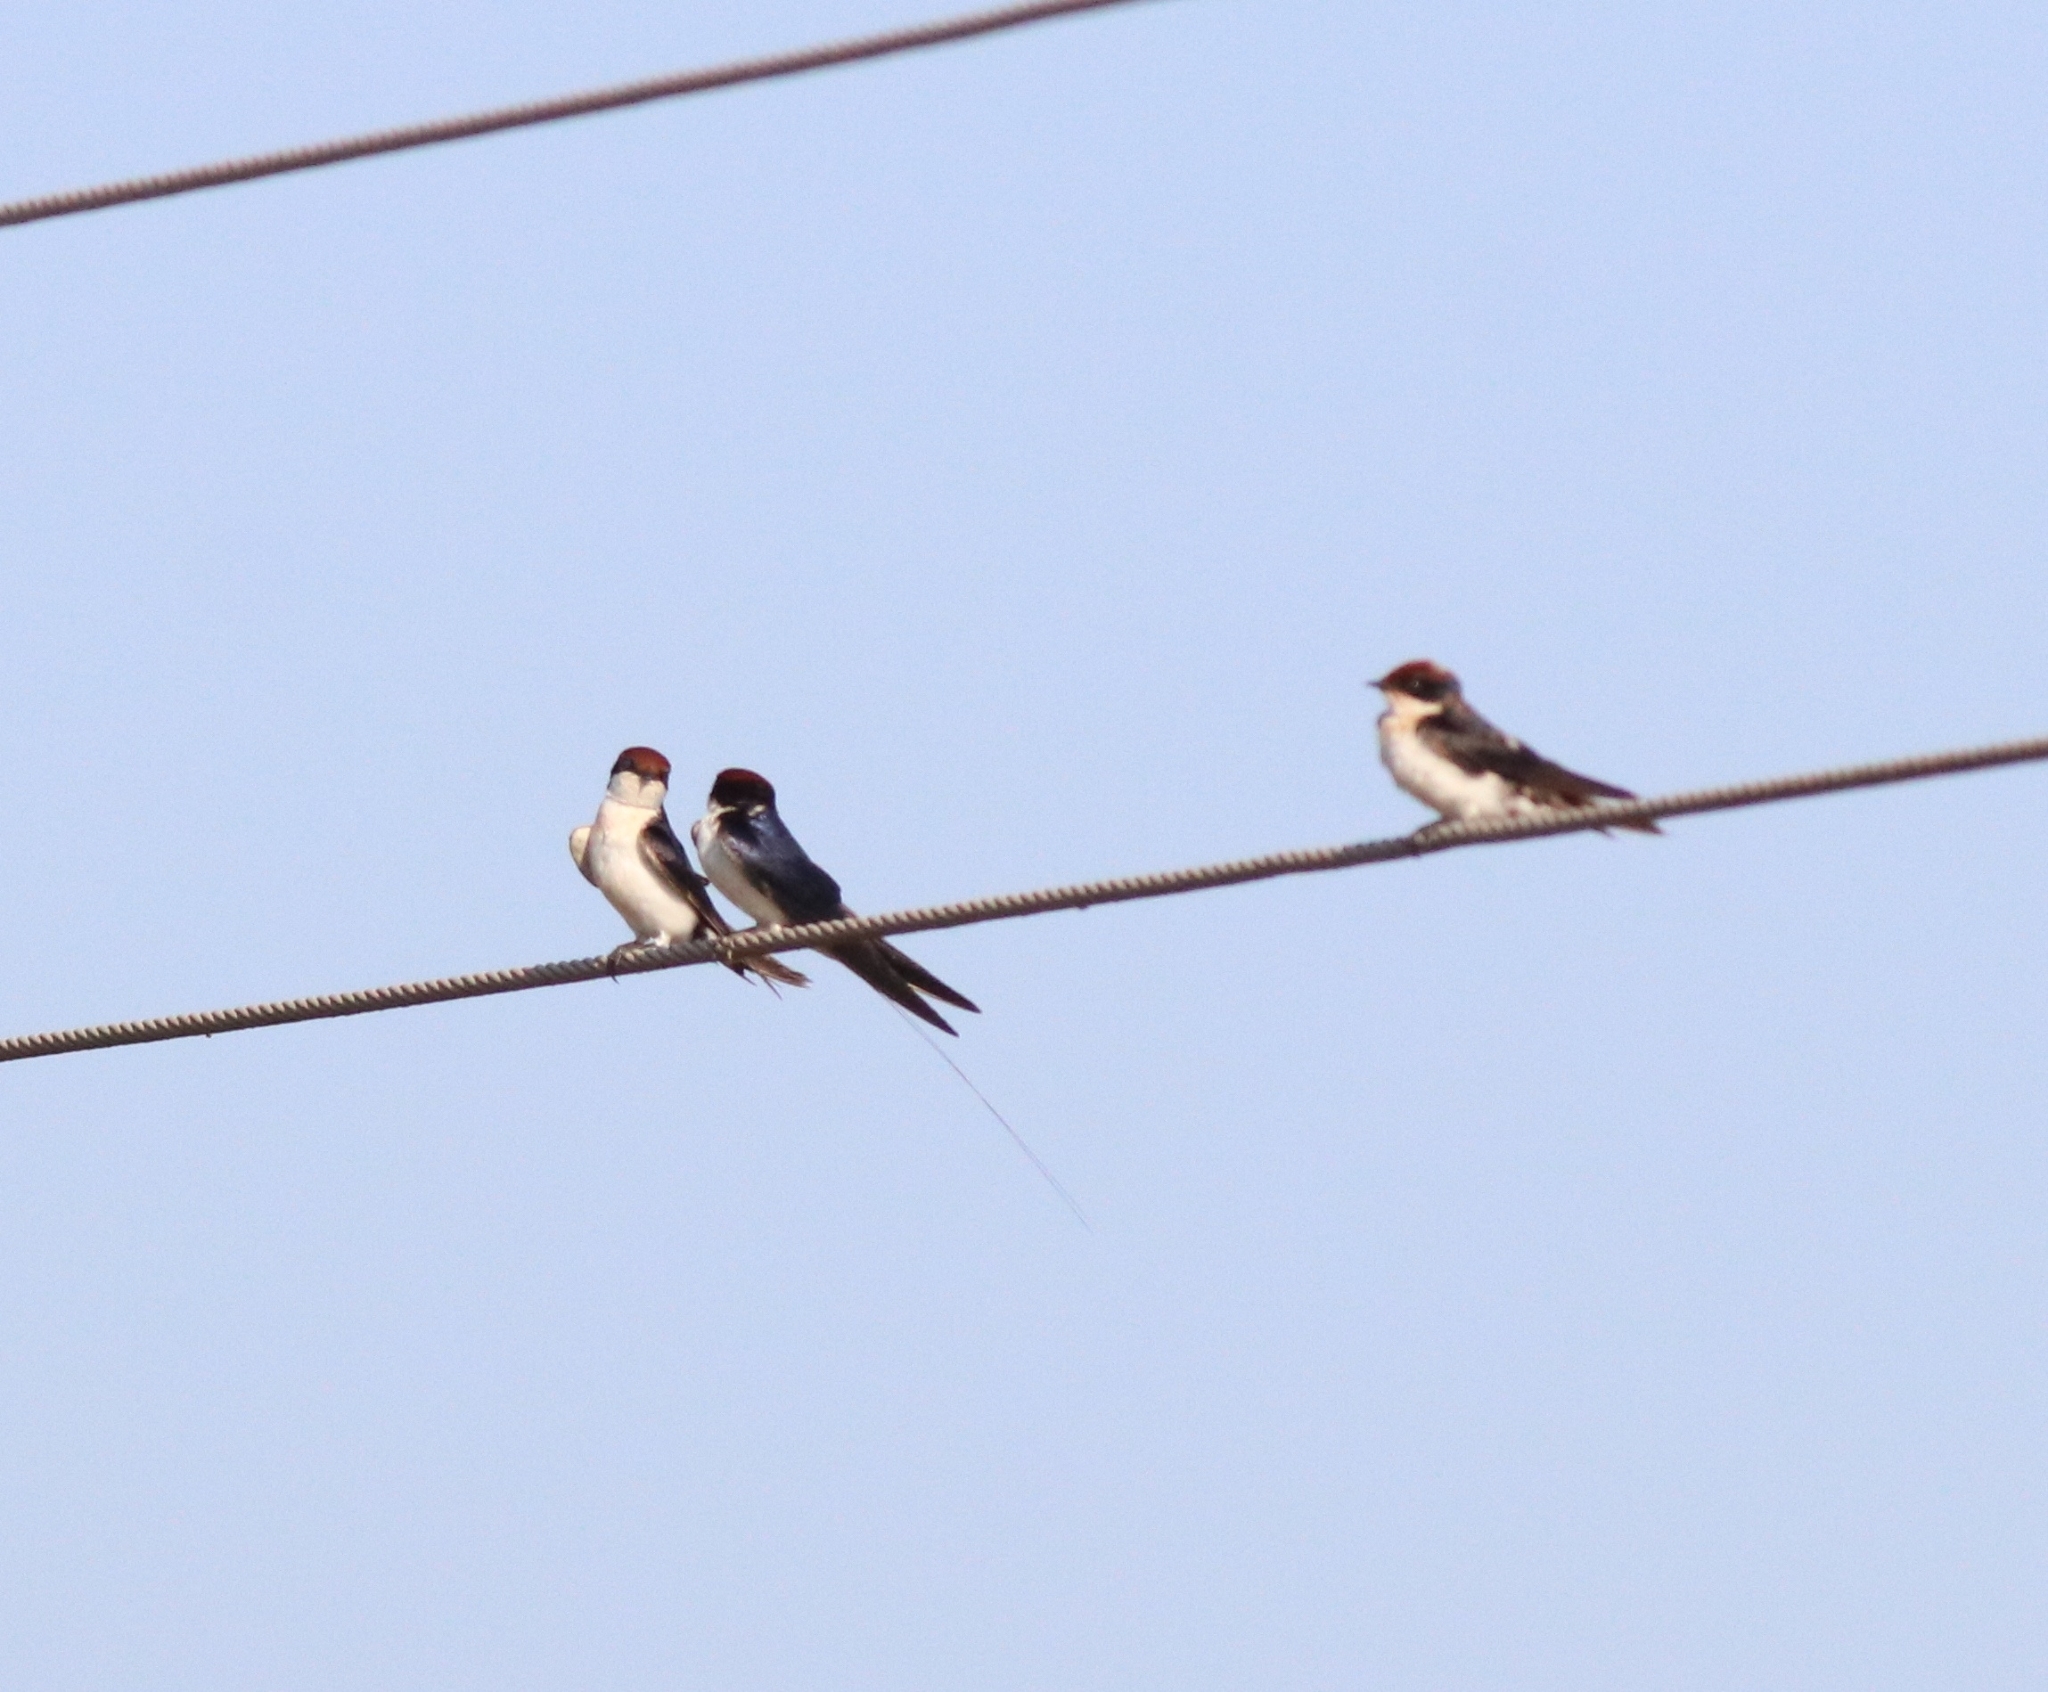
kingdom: Animalia
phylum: Chordata
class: Aves
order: Passeriformes
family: Hirundinidae
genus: Hirundo
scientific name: Hirundo smithii
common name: Wire-tailed swallow
